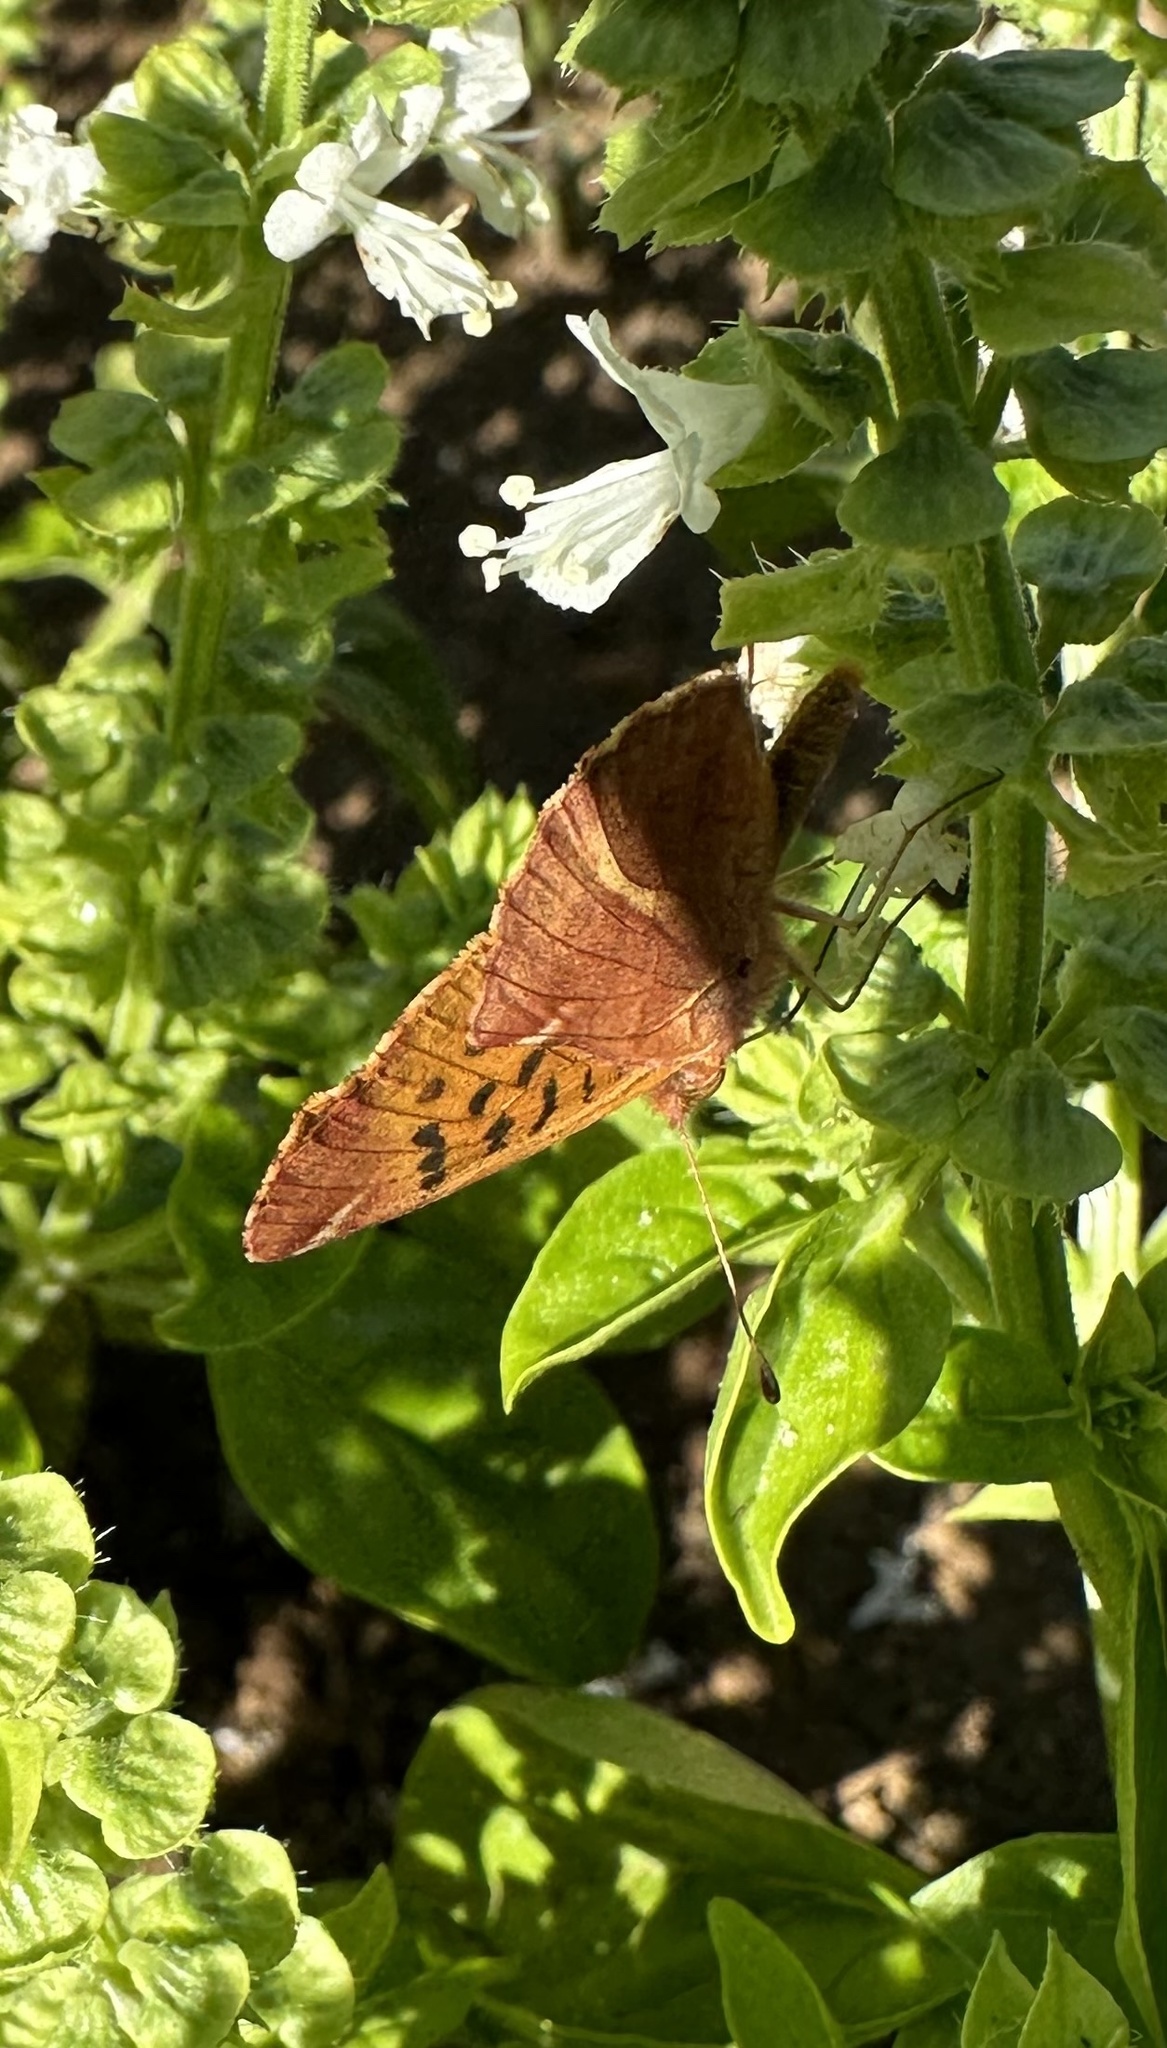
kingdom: Animalia
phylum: Arthropoda
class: Insecta
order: Lepidoptera
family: Nymphalidae
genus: Issoria
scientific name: Issoria Yramea cytheris
